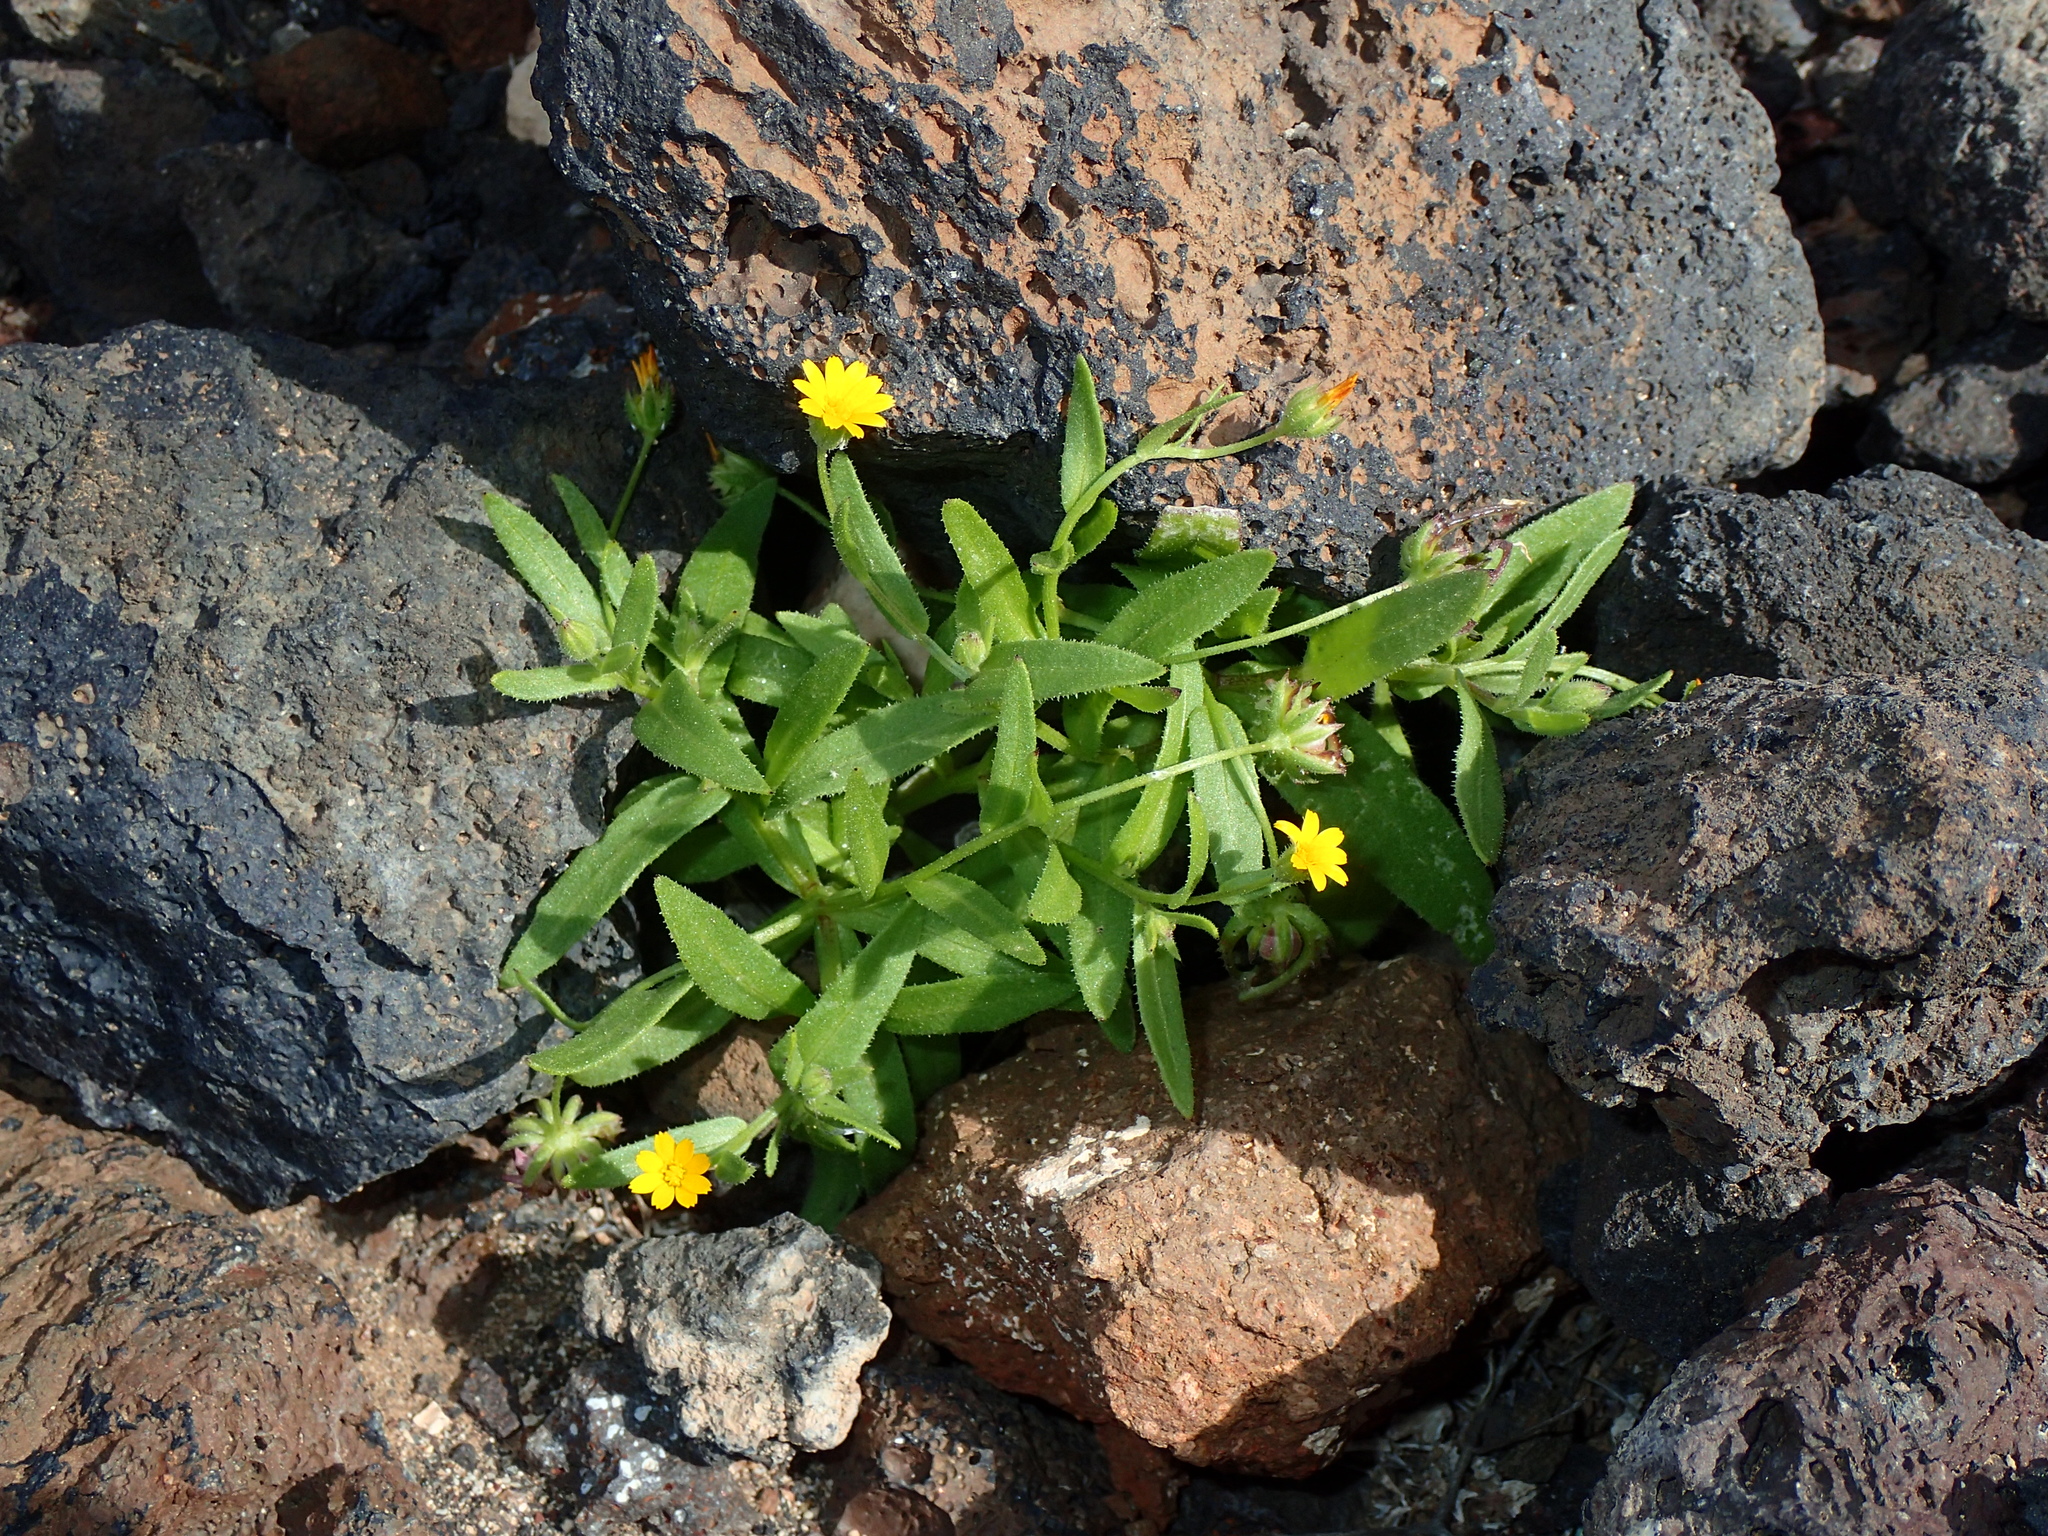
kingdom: Plantae
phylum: Tracheophyta
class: Magnoliopsida
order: Asterales
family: Asteraceae
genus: Calendula
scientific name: Calendula arvensis
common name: Field marigold
